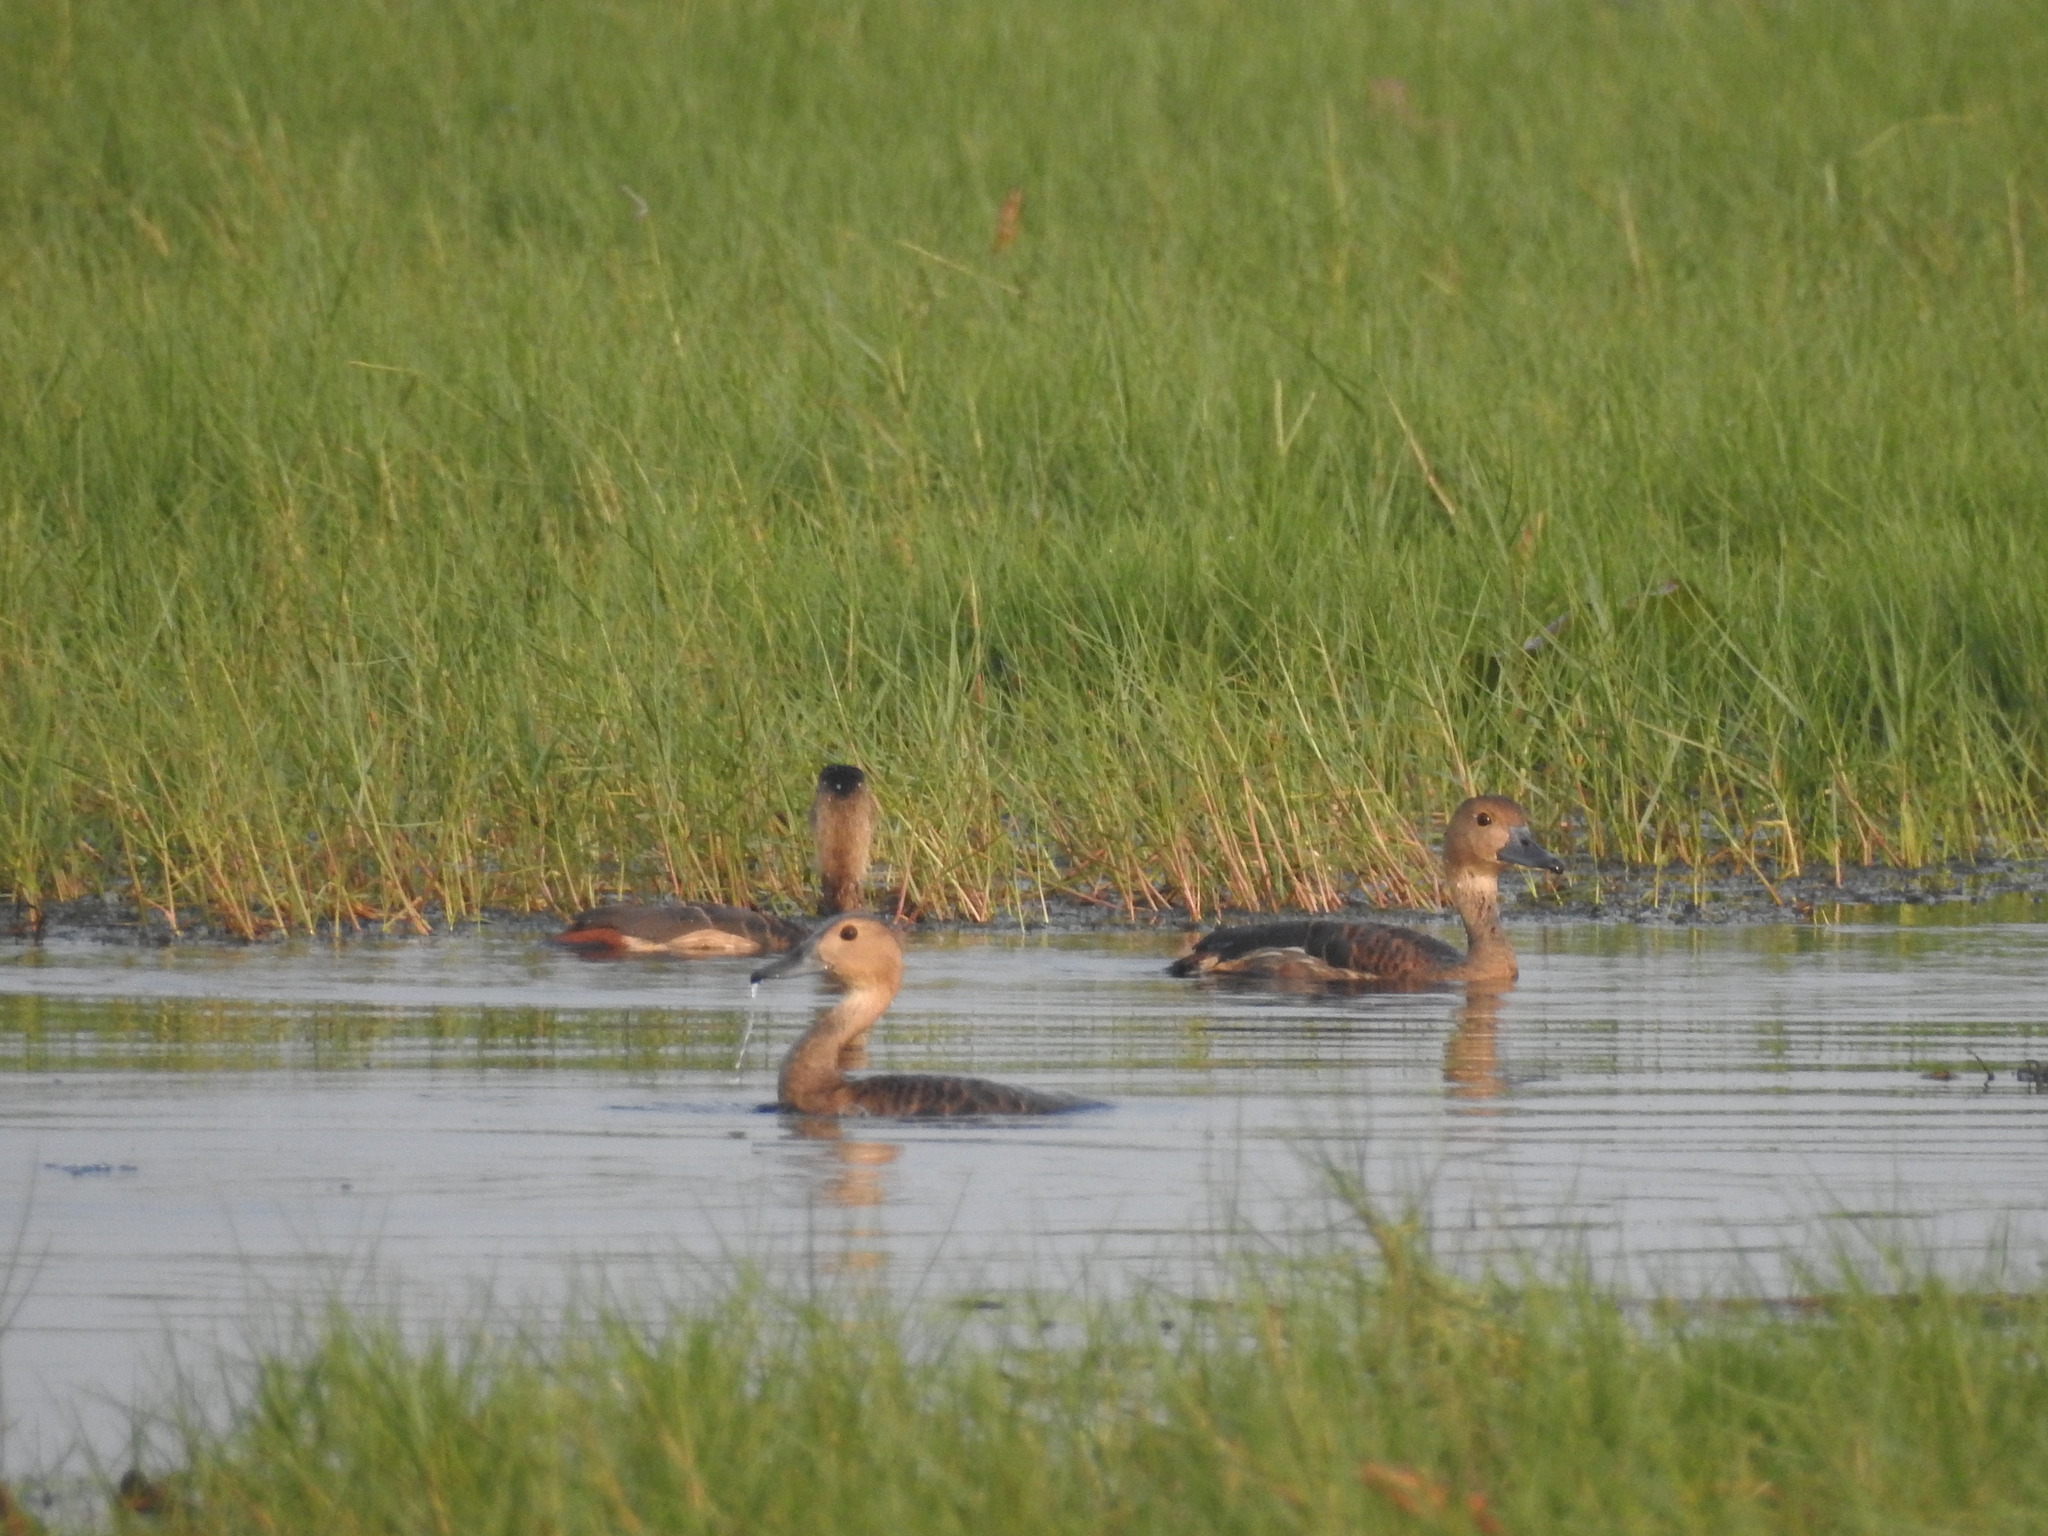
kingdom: Animalia
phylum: Chordata
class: Aves
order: Anseriformes
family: Anatidae
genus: Dendrocygna
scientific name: Dendrocygna javanica
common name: Lesser whistling-duck
